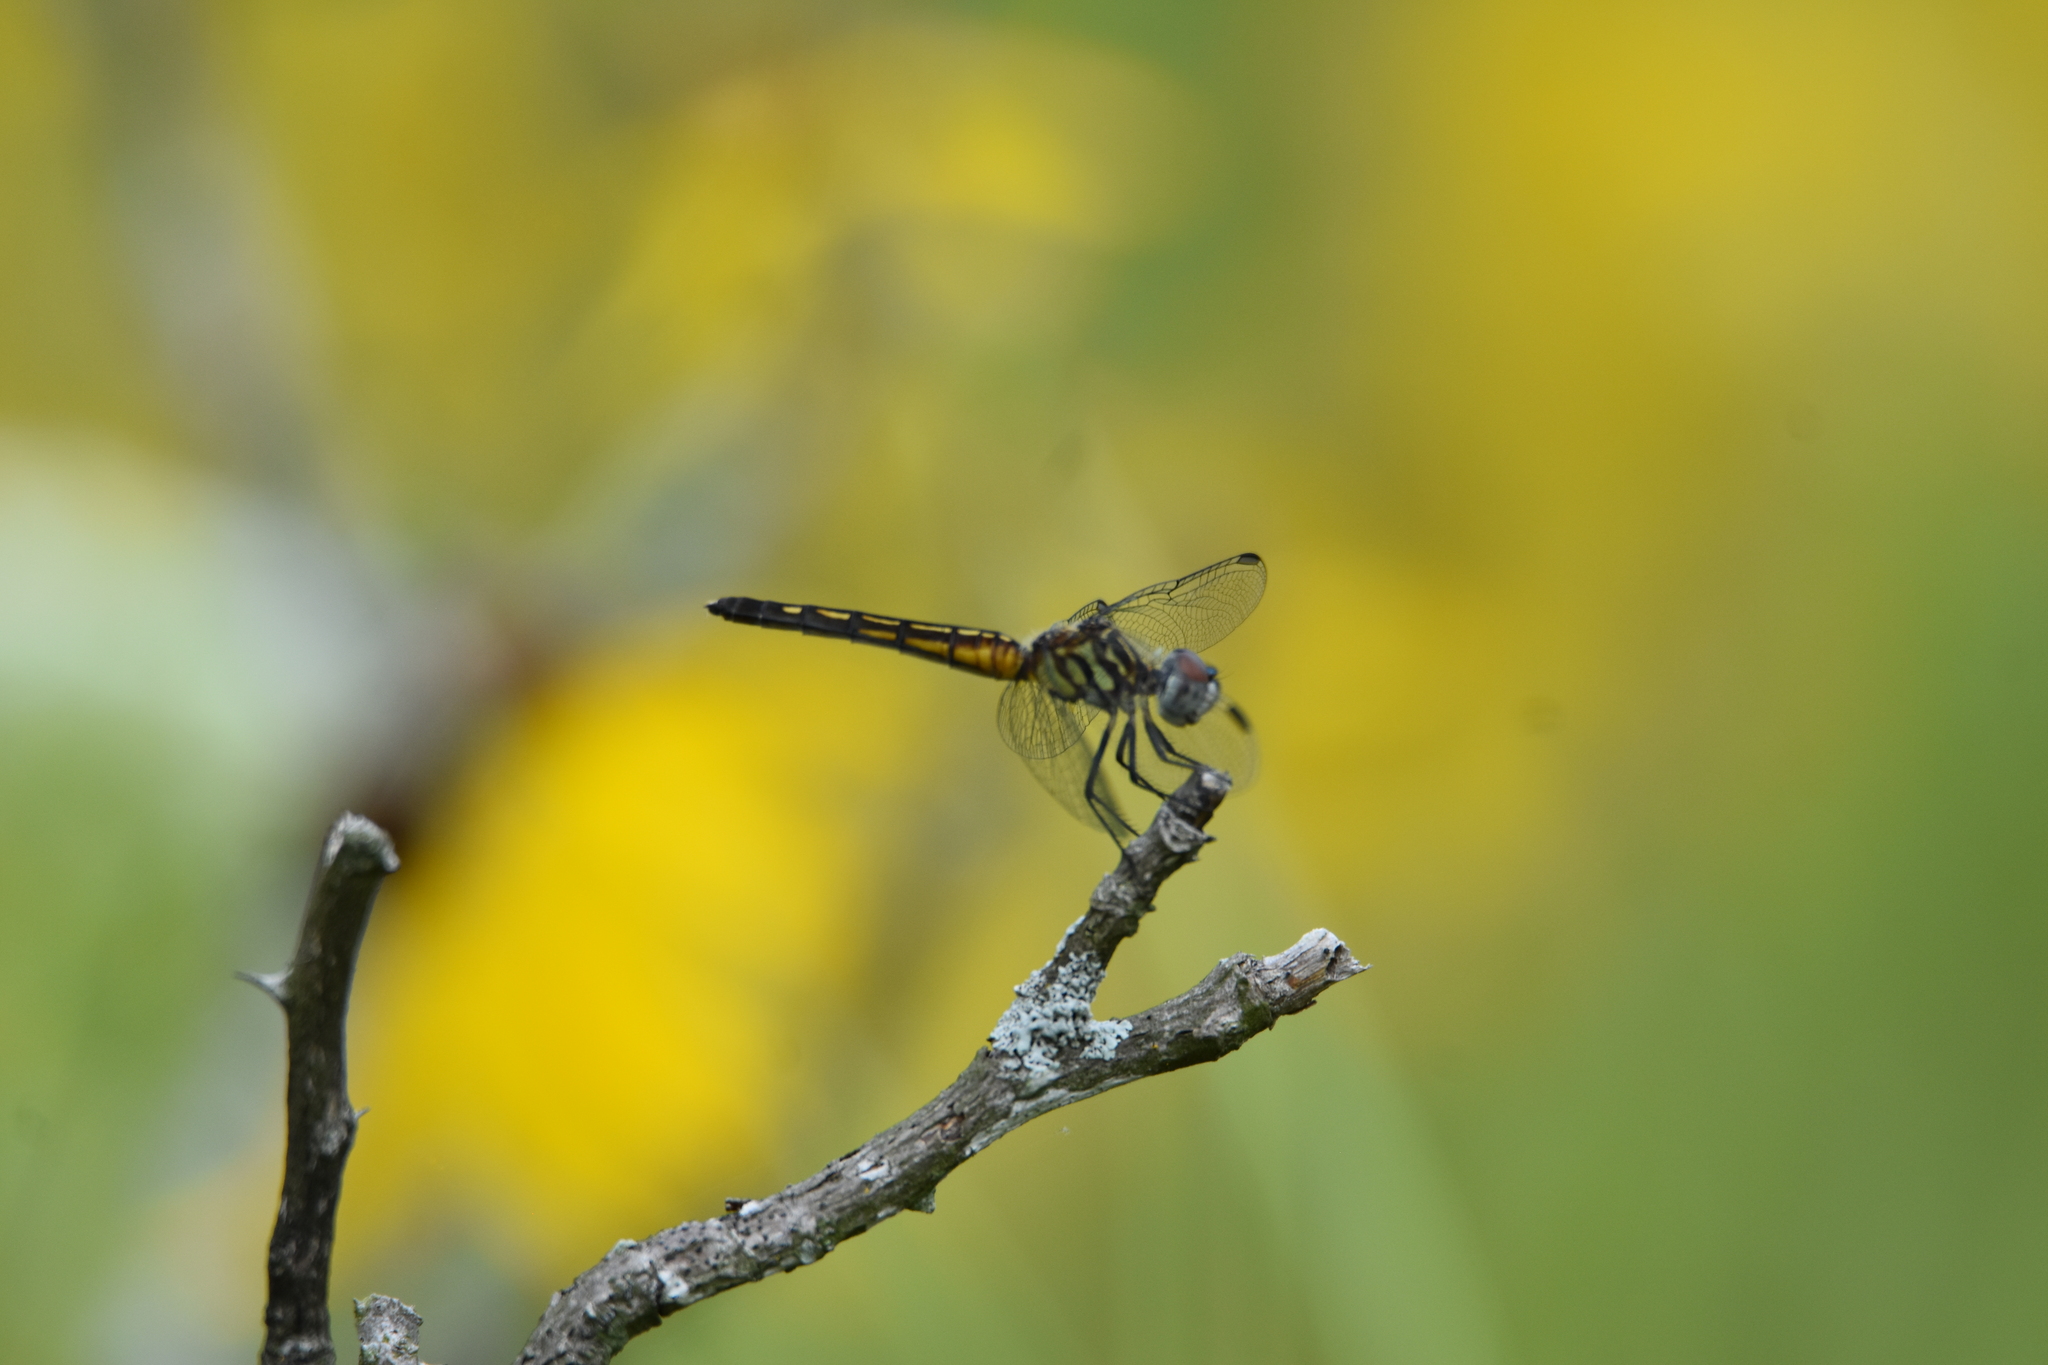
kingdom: Animalia
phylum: Arthropoda
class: Insecta
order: Odonata
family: Libellulidae
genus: Pachydiplax
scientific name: Pachydiplax longipennis
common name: Blue dasher
